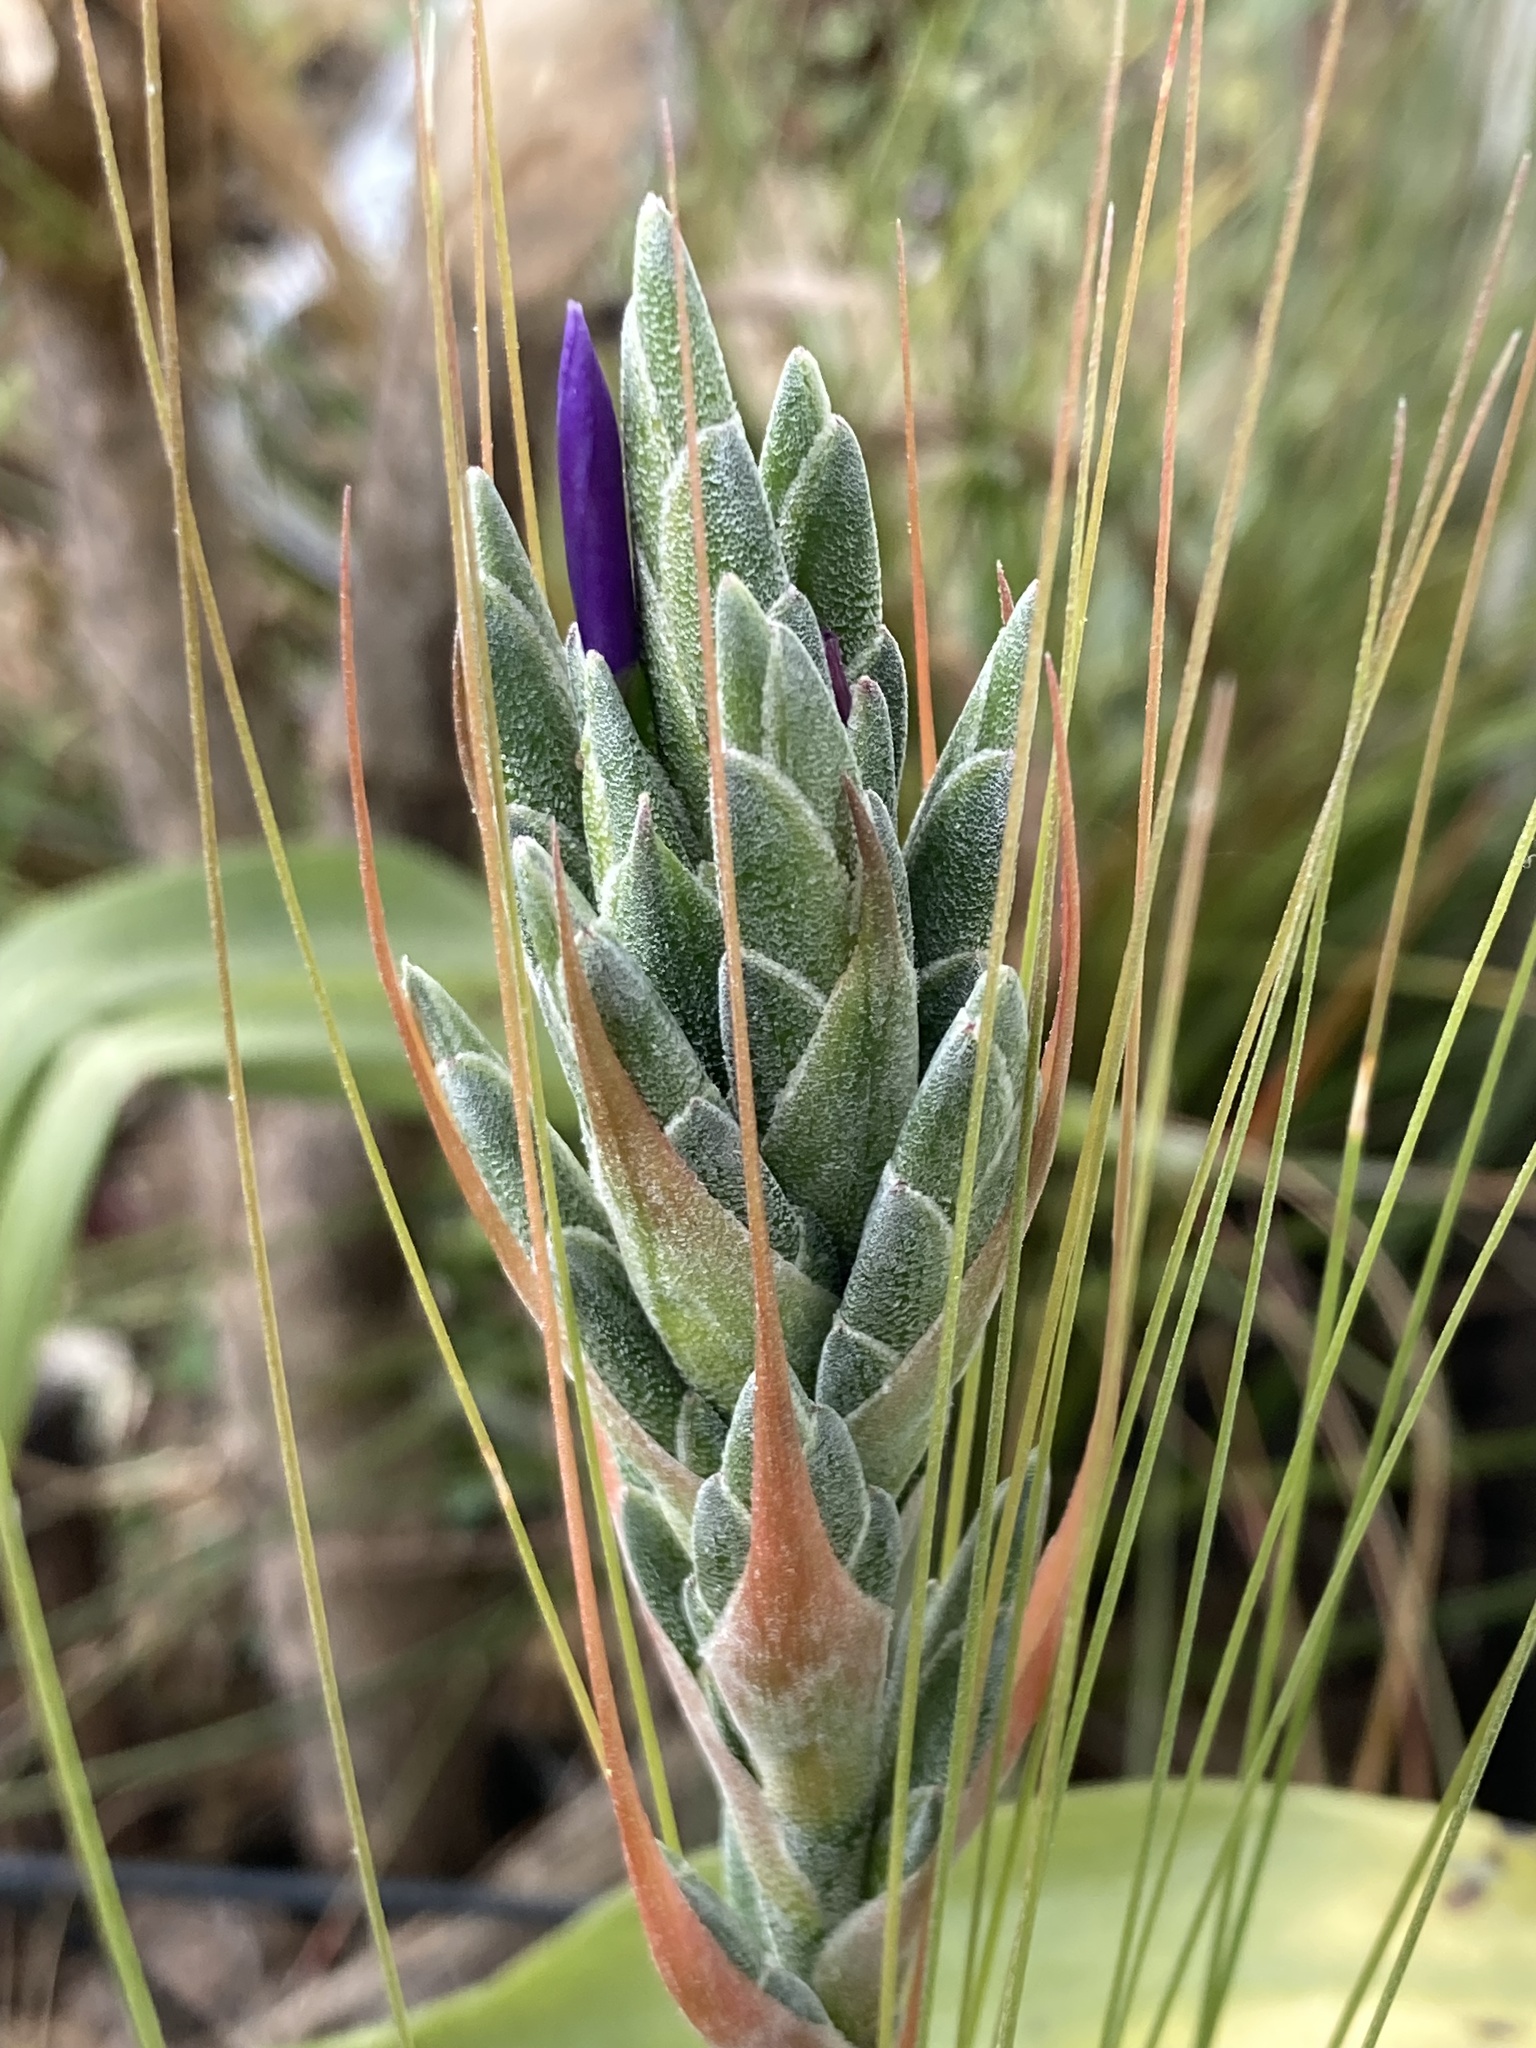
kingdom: Plantae
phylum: Tracheophyta
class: Liliopsida
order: Poales
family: Bromeliaceae
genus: Tillandsia
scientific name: Tillandsia juncea
